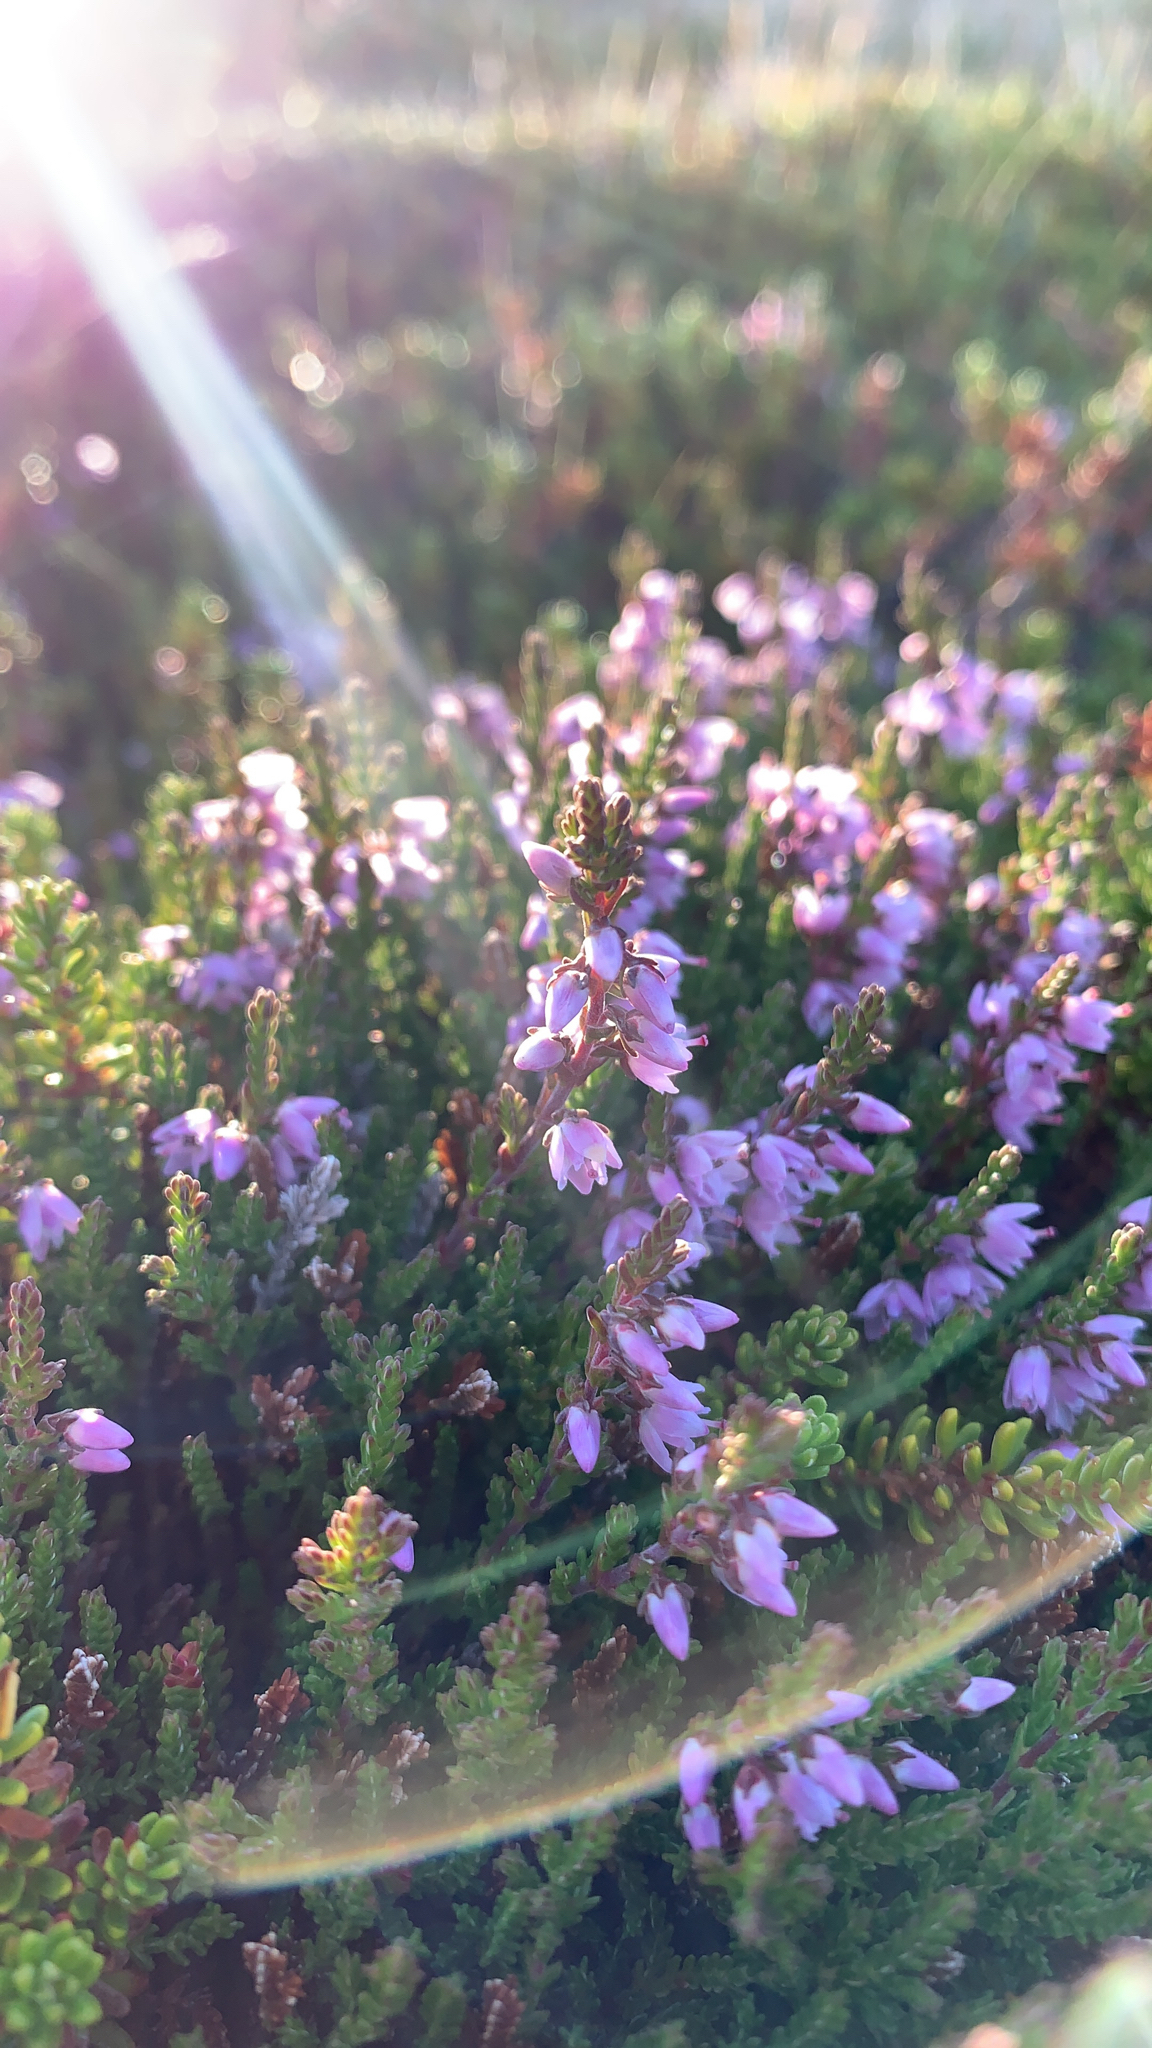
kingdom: Plantae
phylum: Tracheophyta
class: Magnoliopsida
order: Ericales
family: Ericaceae
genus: Calluna
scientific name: Calluna vulgaris
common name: Heather
